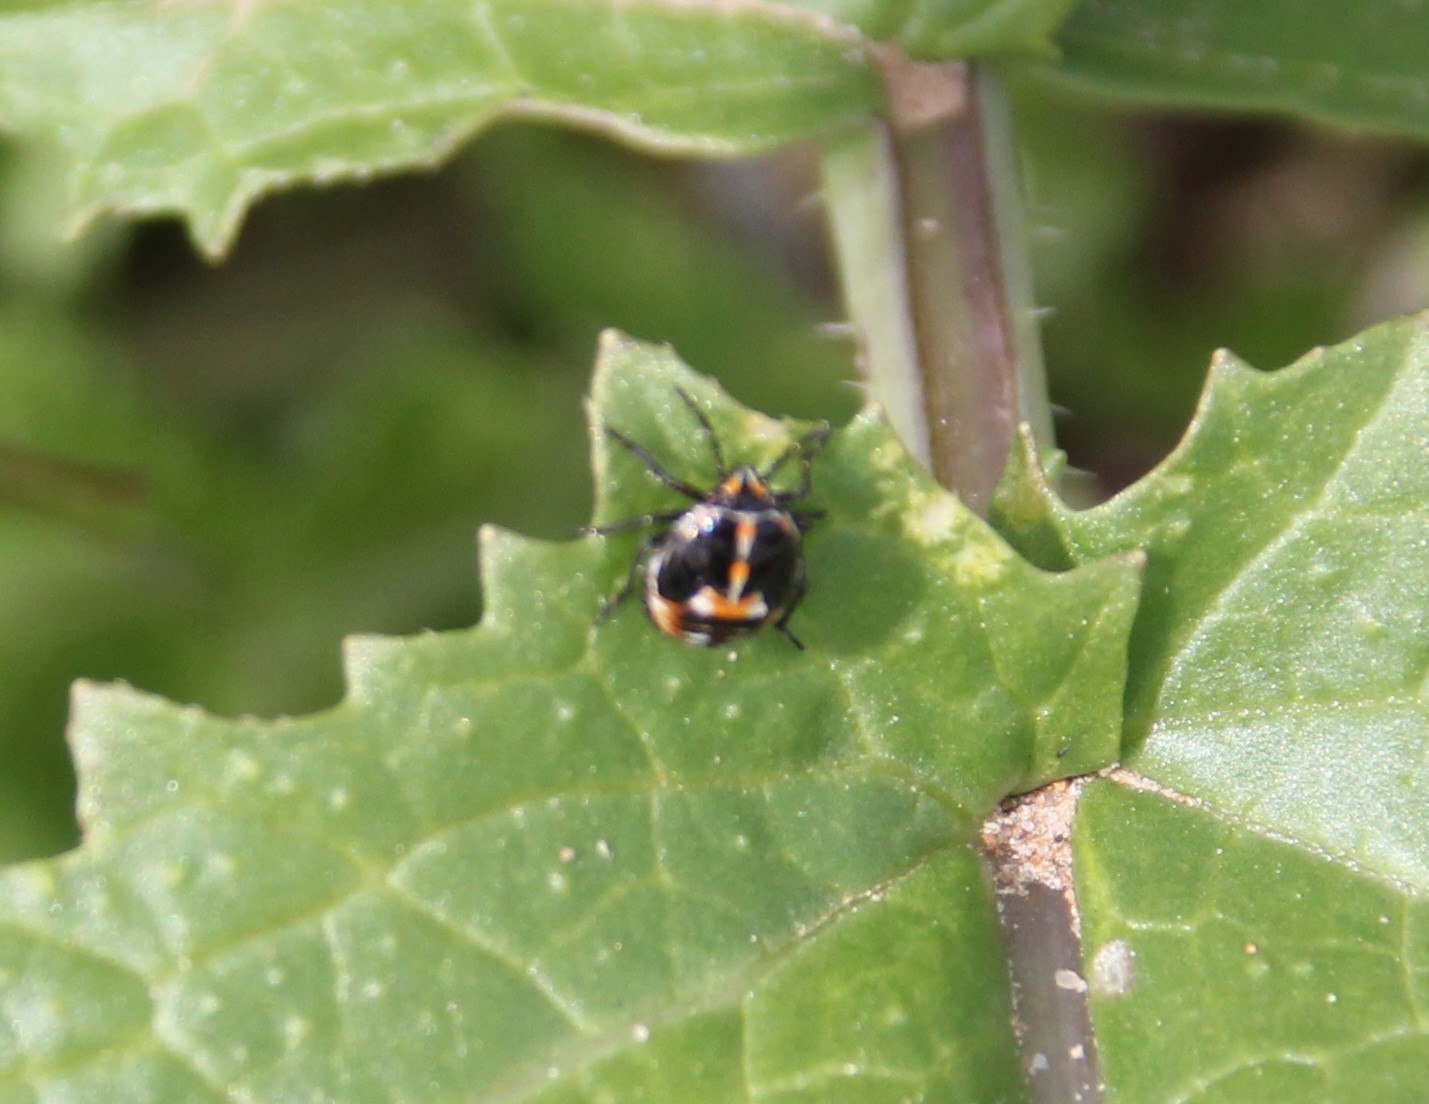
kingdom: Animalia
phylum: Arthropoda
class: Insecta
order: Hemiptera
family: Pentatomidae
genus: Bagrada
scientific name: Bagrada hilaris
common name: Bagrada bug
